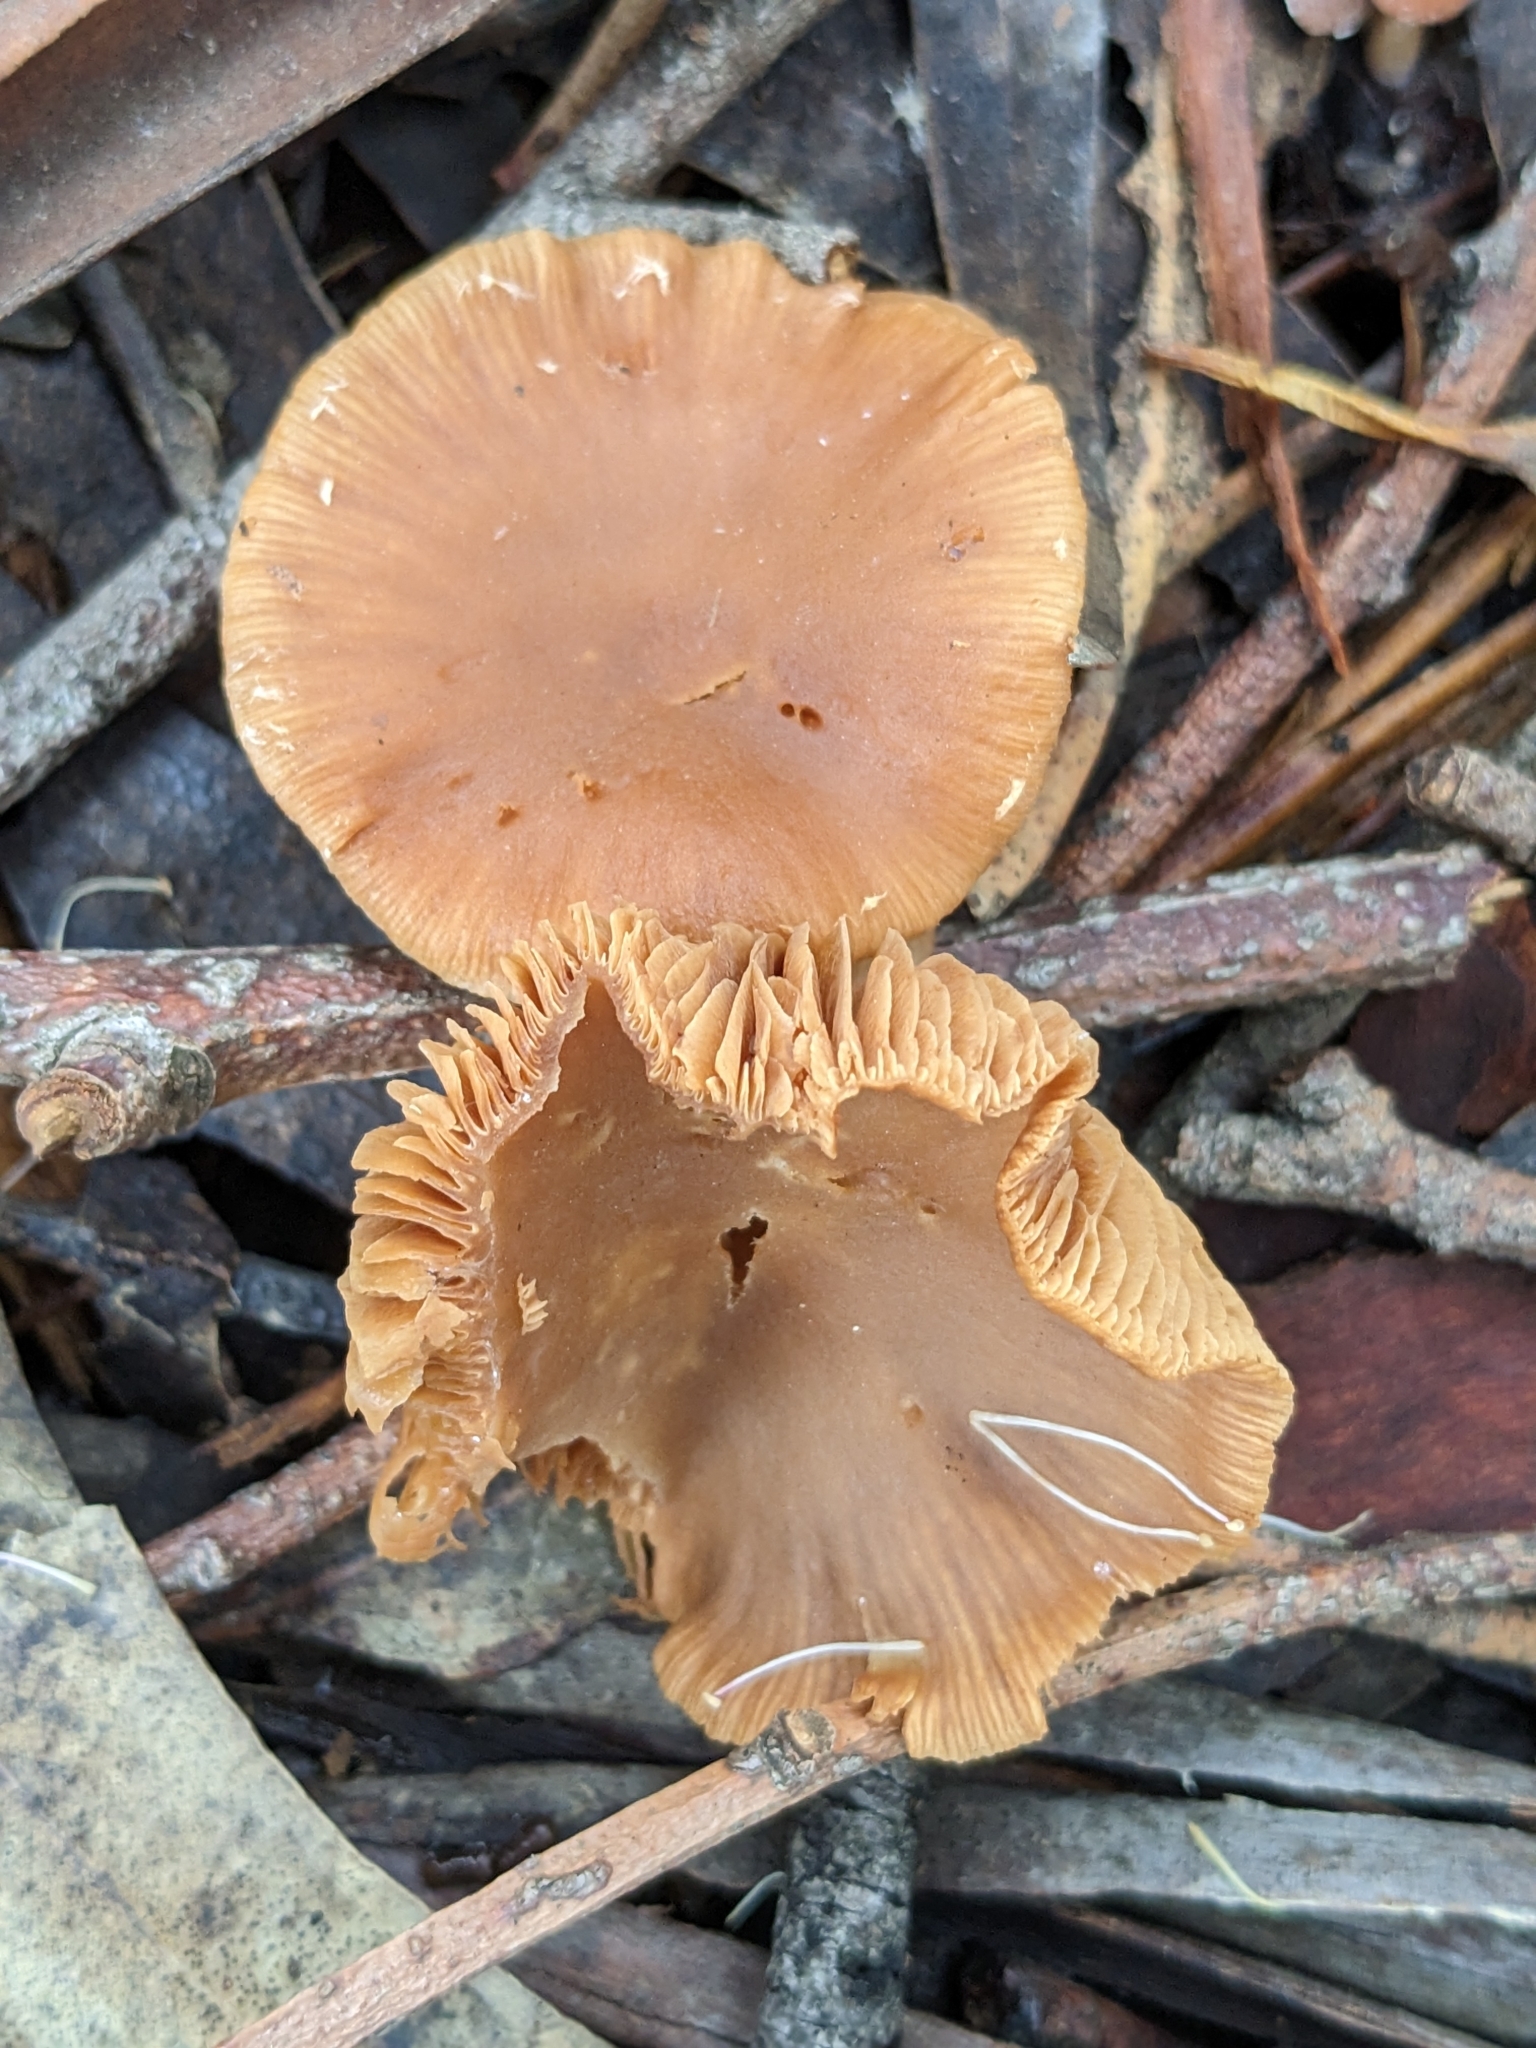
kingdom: Fungi
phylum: Basidiomycota
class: Agaricomycetes
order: Agaricales
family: Tubariaceae
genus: Tubaria
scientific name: Tubaria furfuracea
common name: Scurfy twiglet
